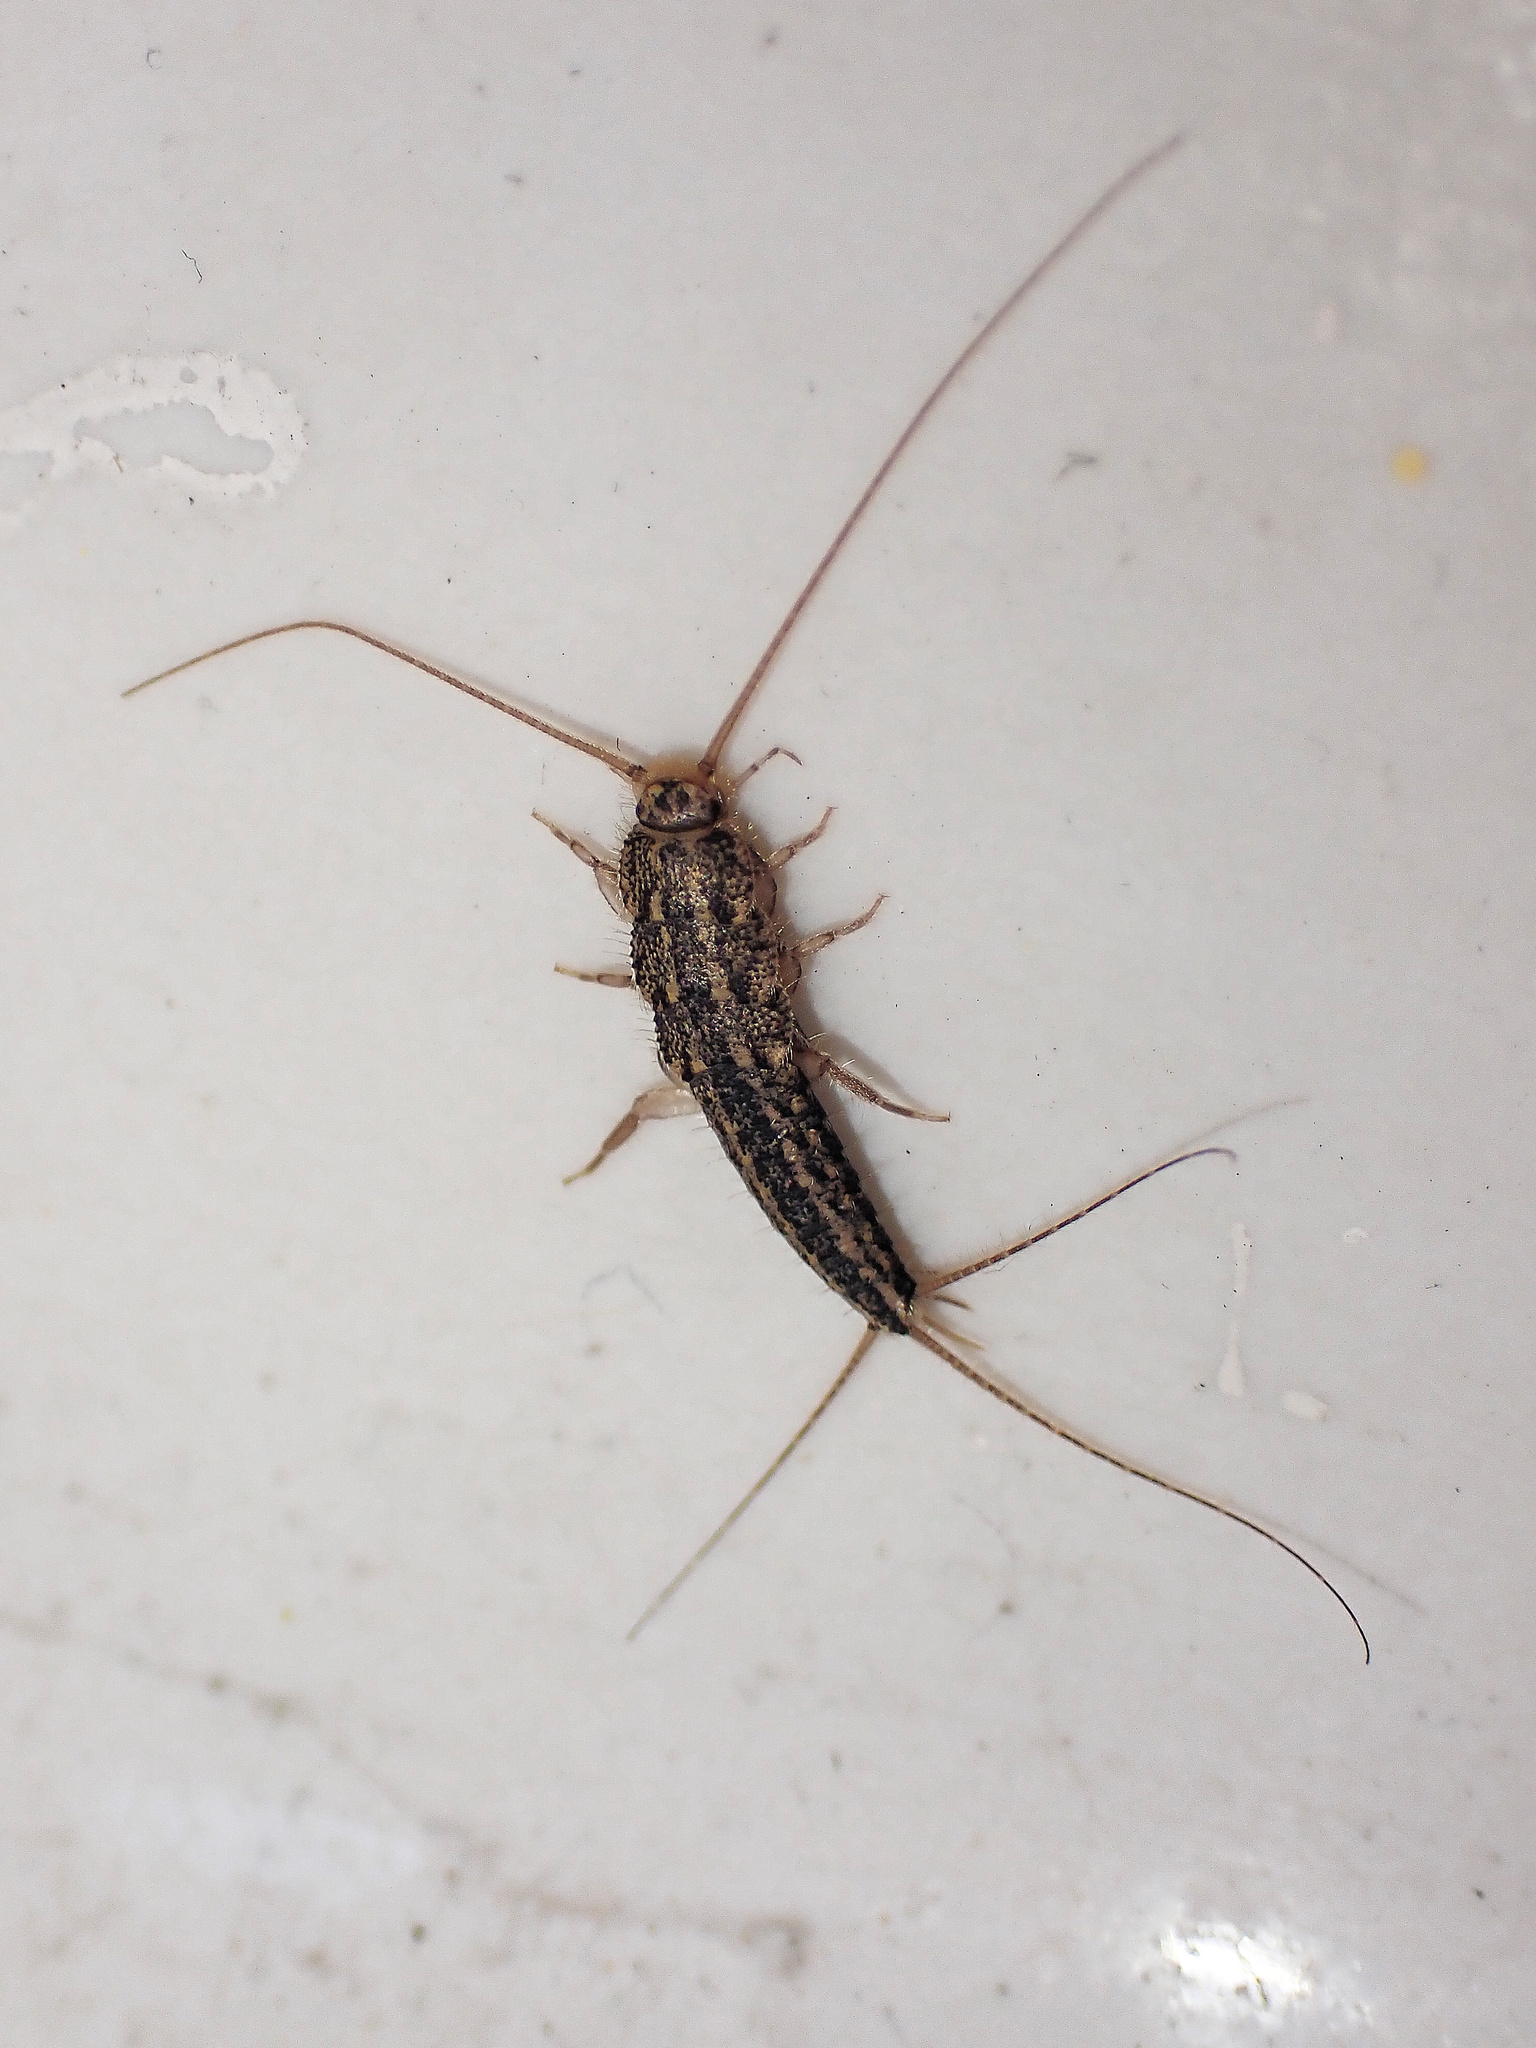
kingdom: Animalia
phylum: Arthropoda
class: Insecta
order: Zygentoma
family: Lepismatidae
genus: Ctenolepisma
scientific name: Ctenolepisma lineata
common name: Four-lined silverfish
